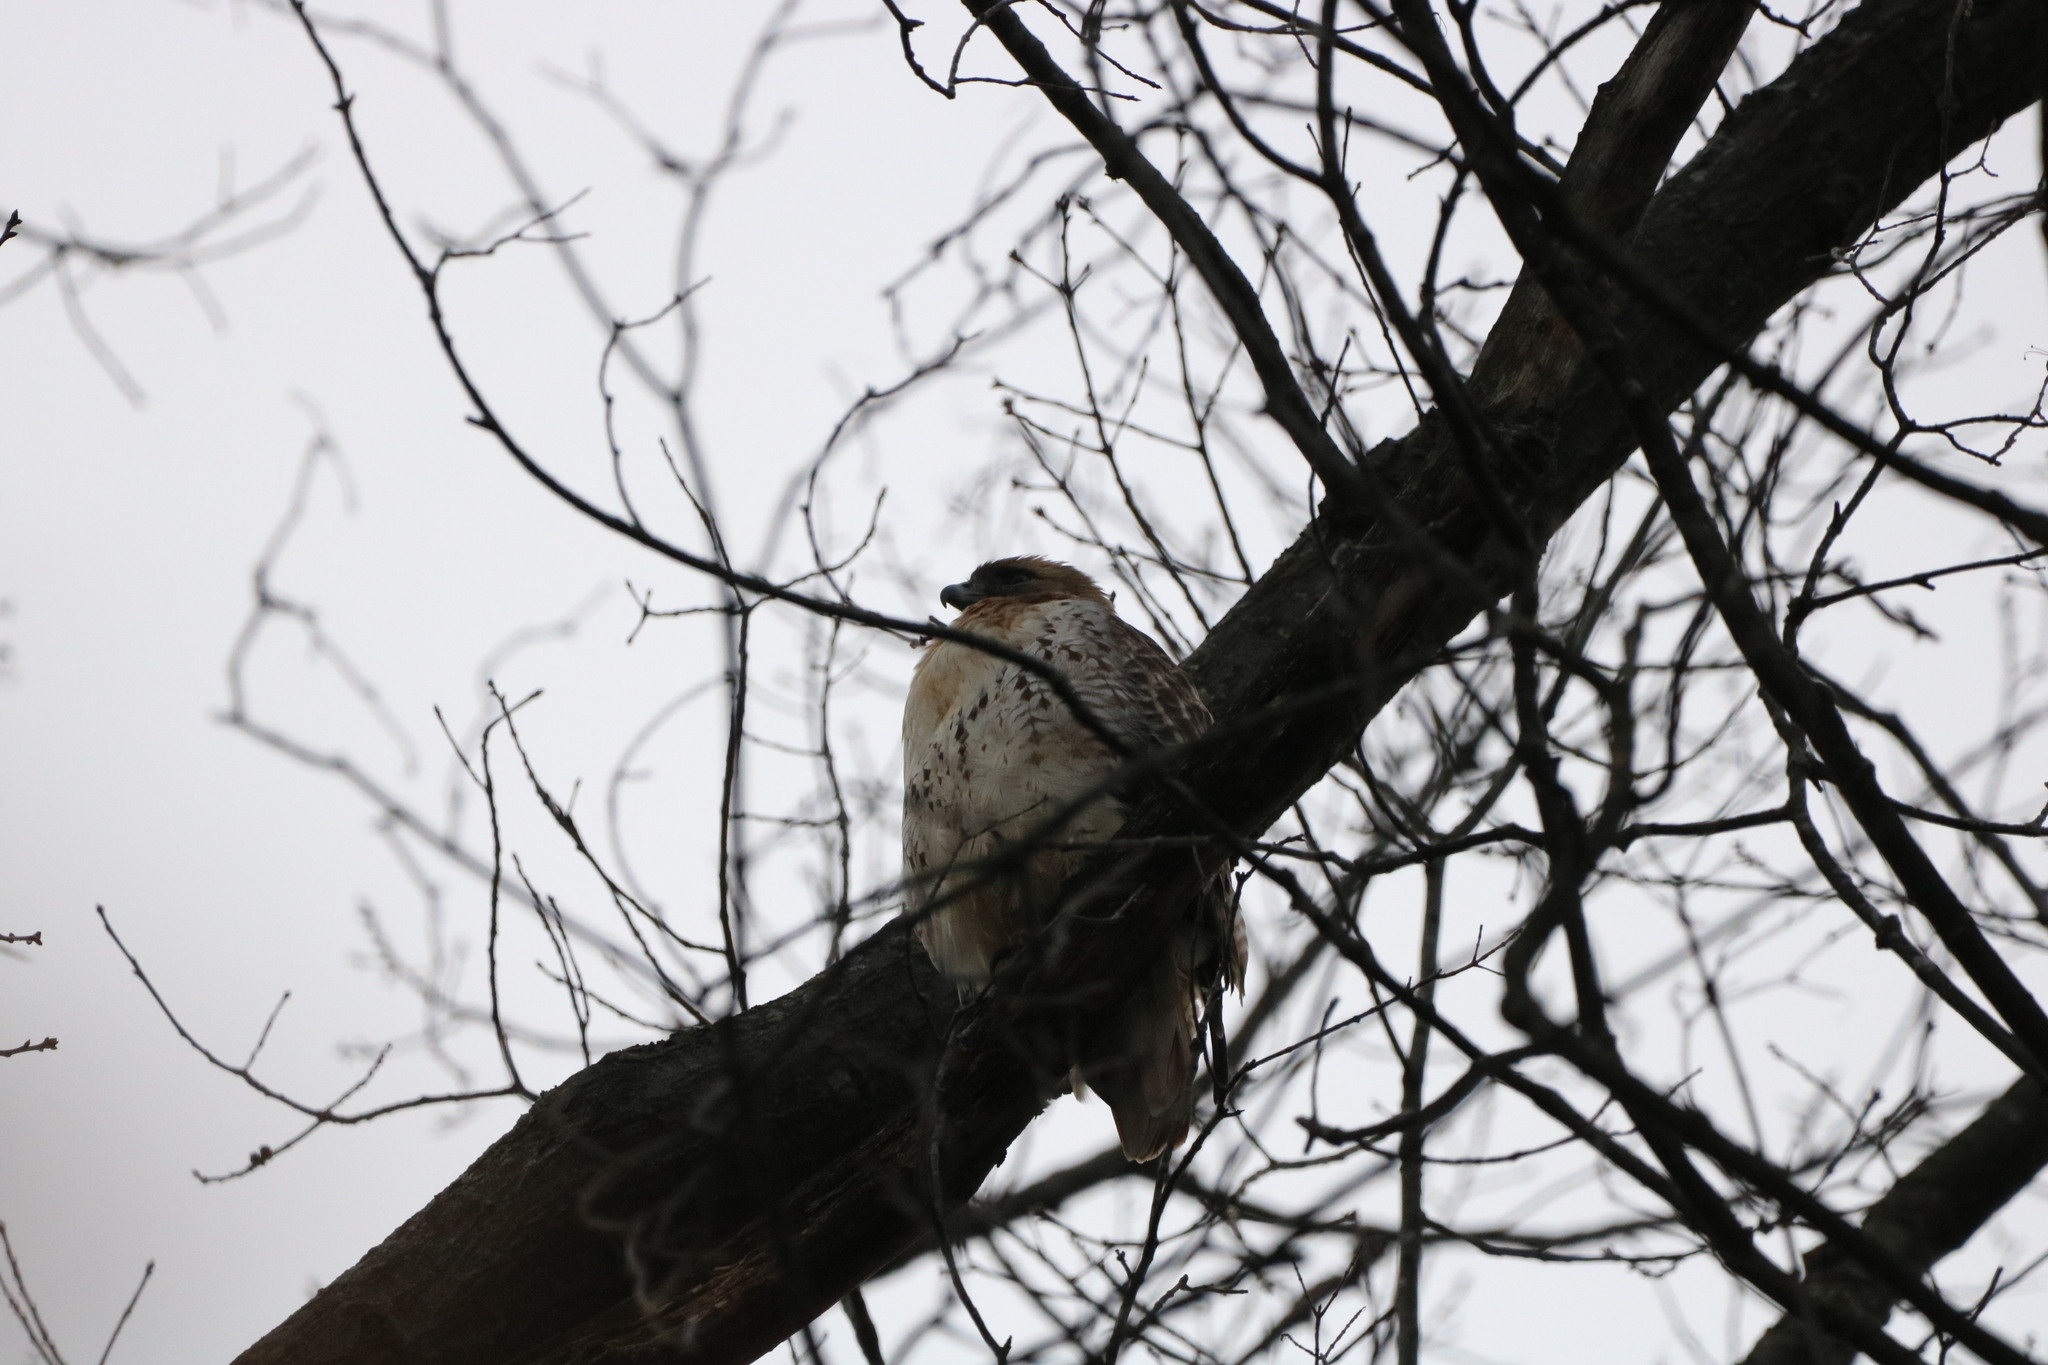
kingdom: Animalia
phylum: Chordata
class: Aves
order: Accipitriformes
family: Accipitridae
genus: Buteo
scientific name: Buteo jamaicensis
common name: Red-tailed hawk
